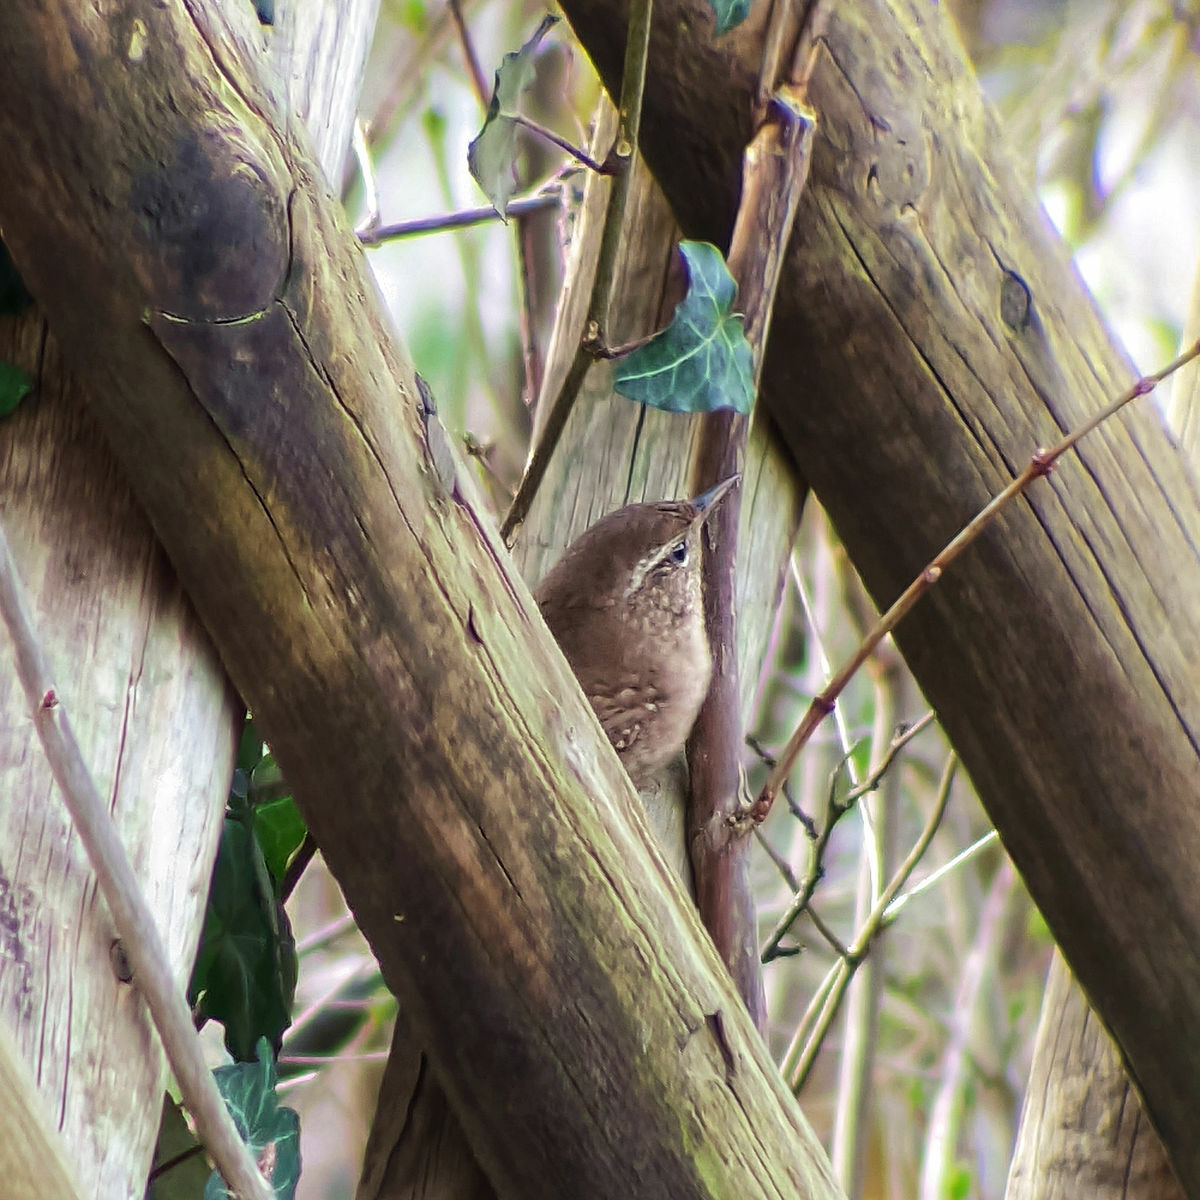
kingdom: Animalia
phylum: Chordata
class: Aves
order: Passeriformes
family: Troglodytidae
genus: Troglodytes
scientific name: Troglodytes troglodytes
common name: Eurasian wren
